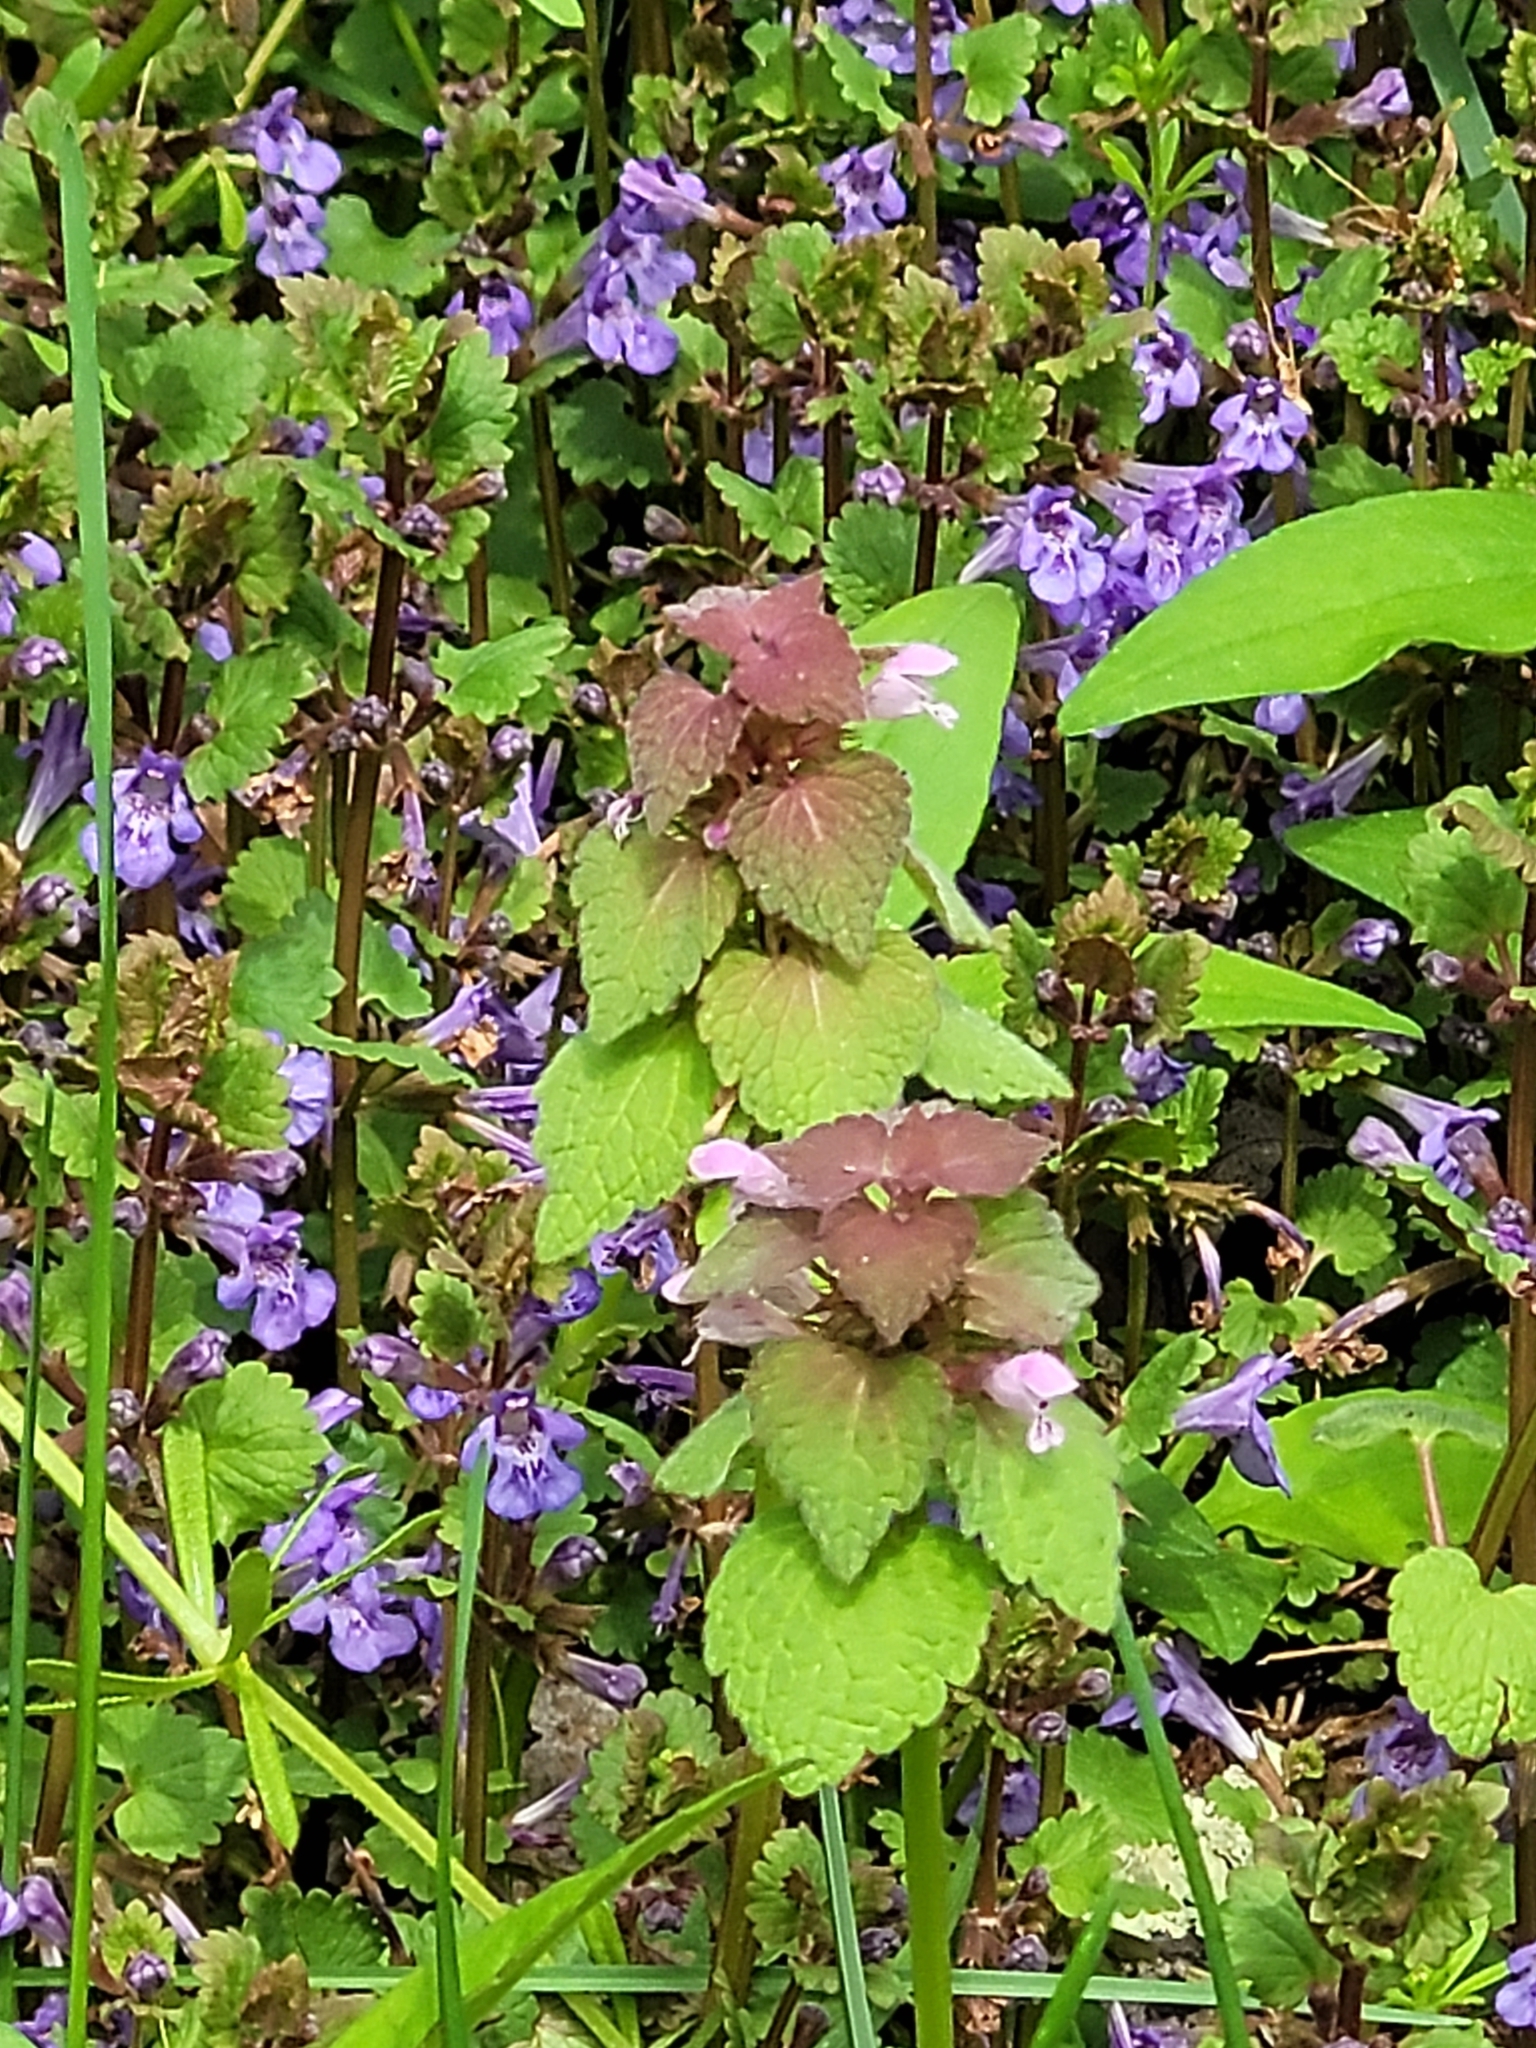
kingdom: Plantae
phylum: Tracheophyta
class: Magnoliopsida
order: Lamiales
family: Lamiaceae
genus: Lamium
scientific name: Lamium purpureum
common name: Red dead-nettle
